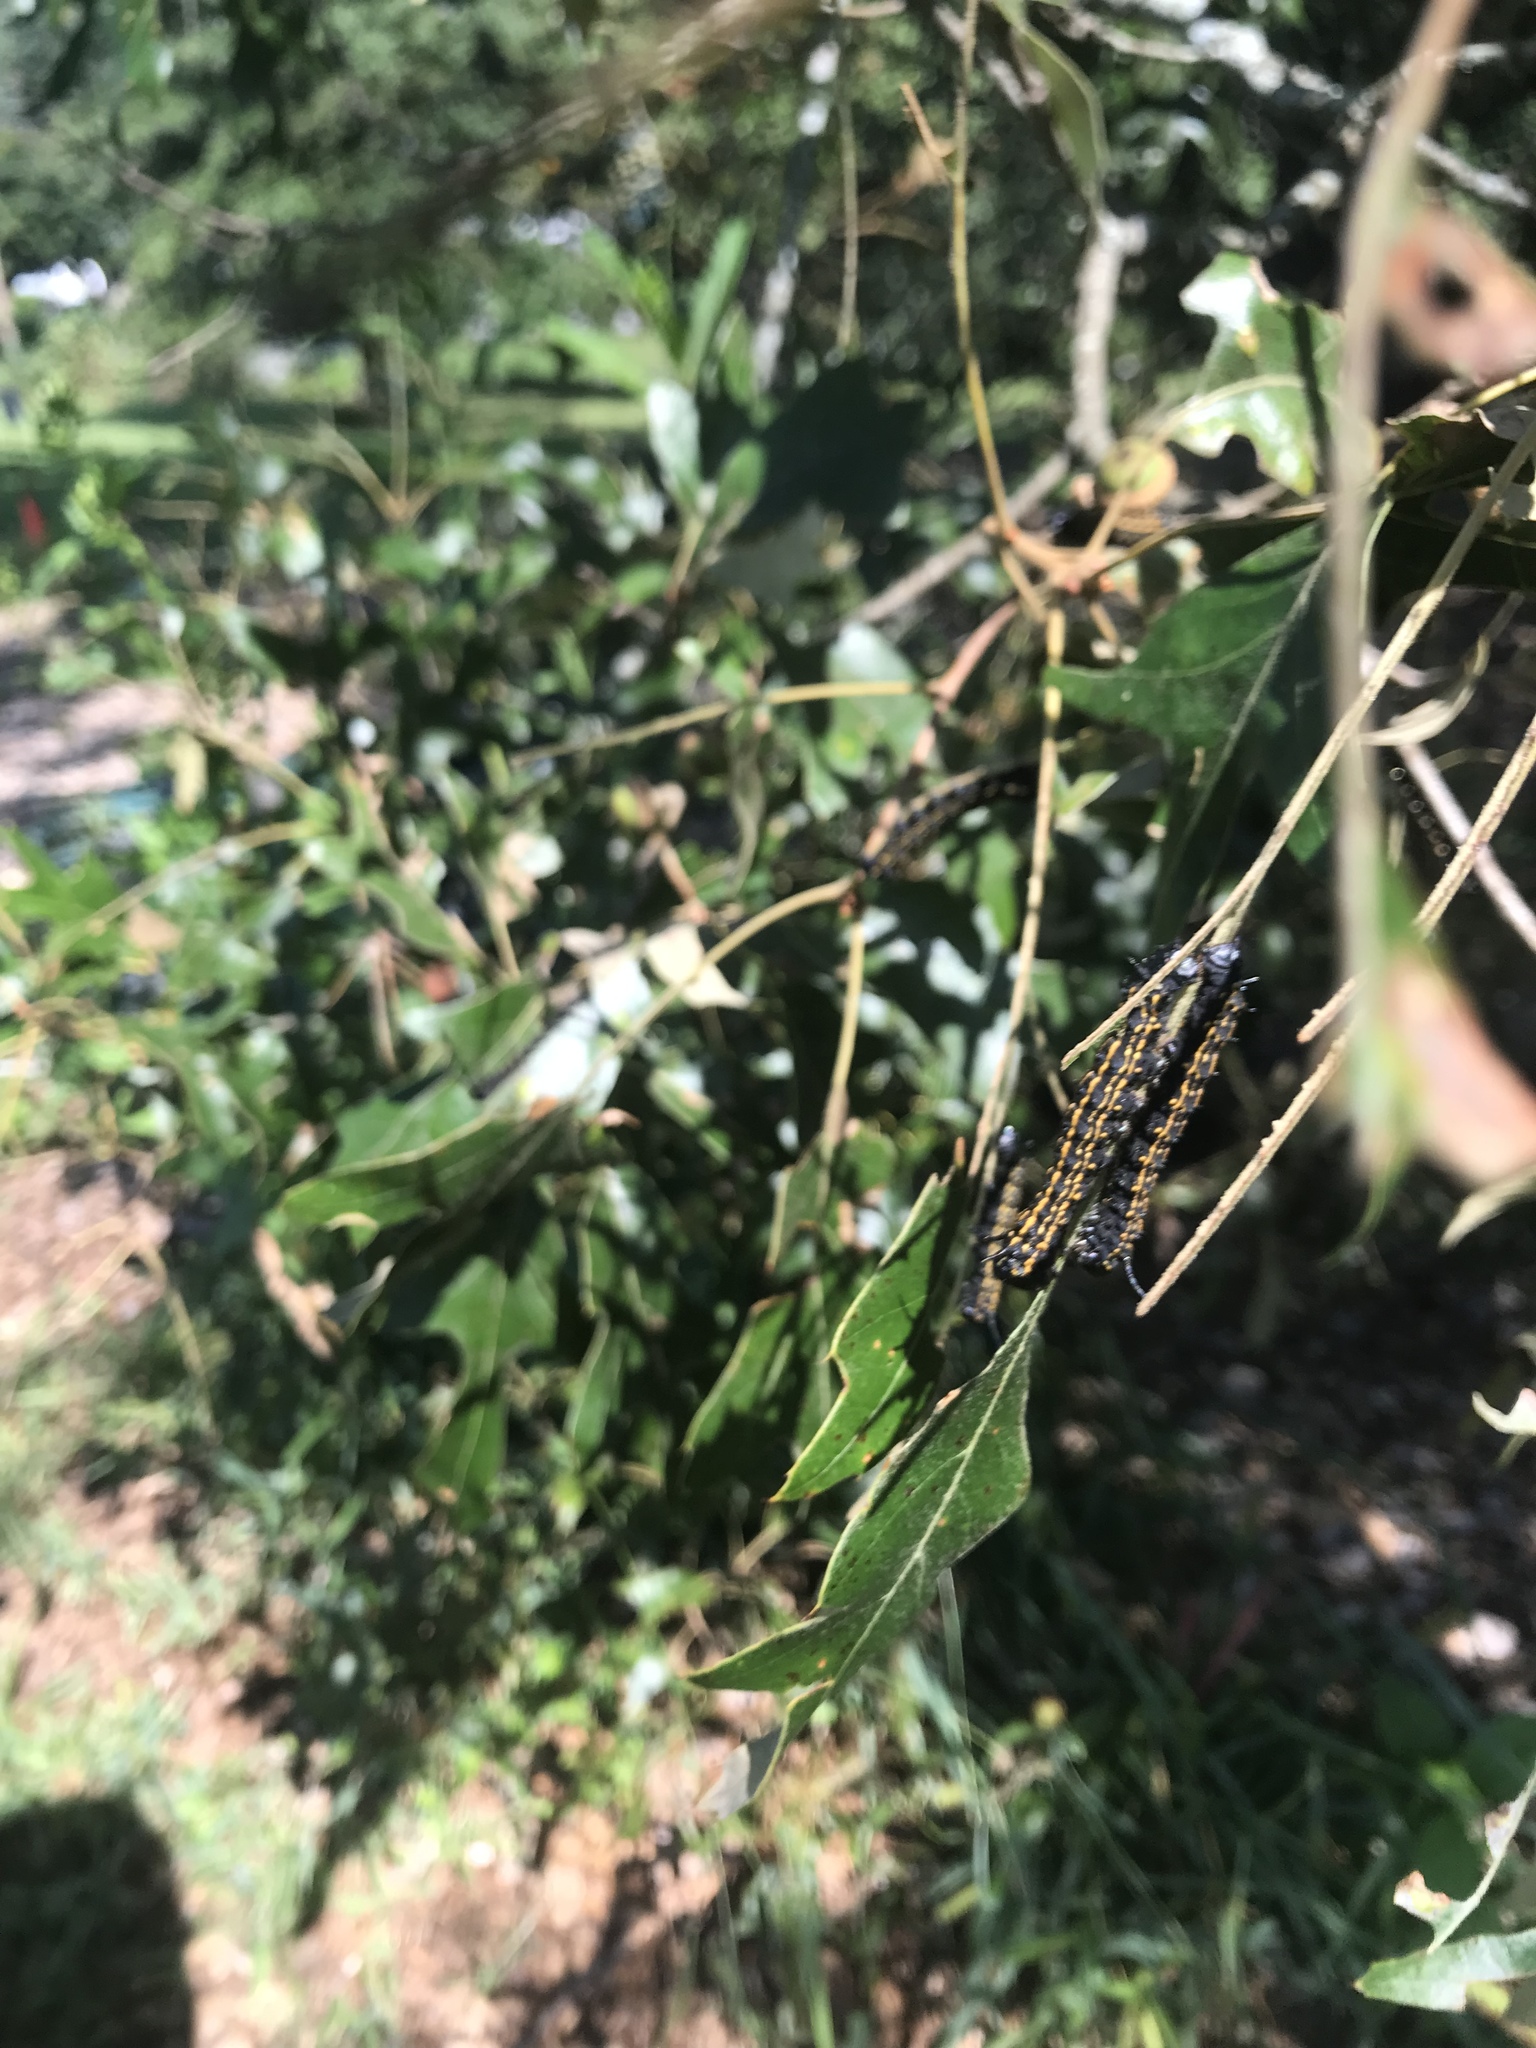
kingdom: Animalia
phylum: Arthropoda
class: Insecta
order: Lepidoptera
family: Saturniidae
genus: Anisota
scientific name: Anisota peigleri
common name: Peigler's oakworm moth
